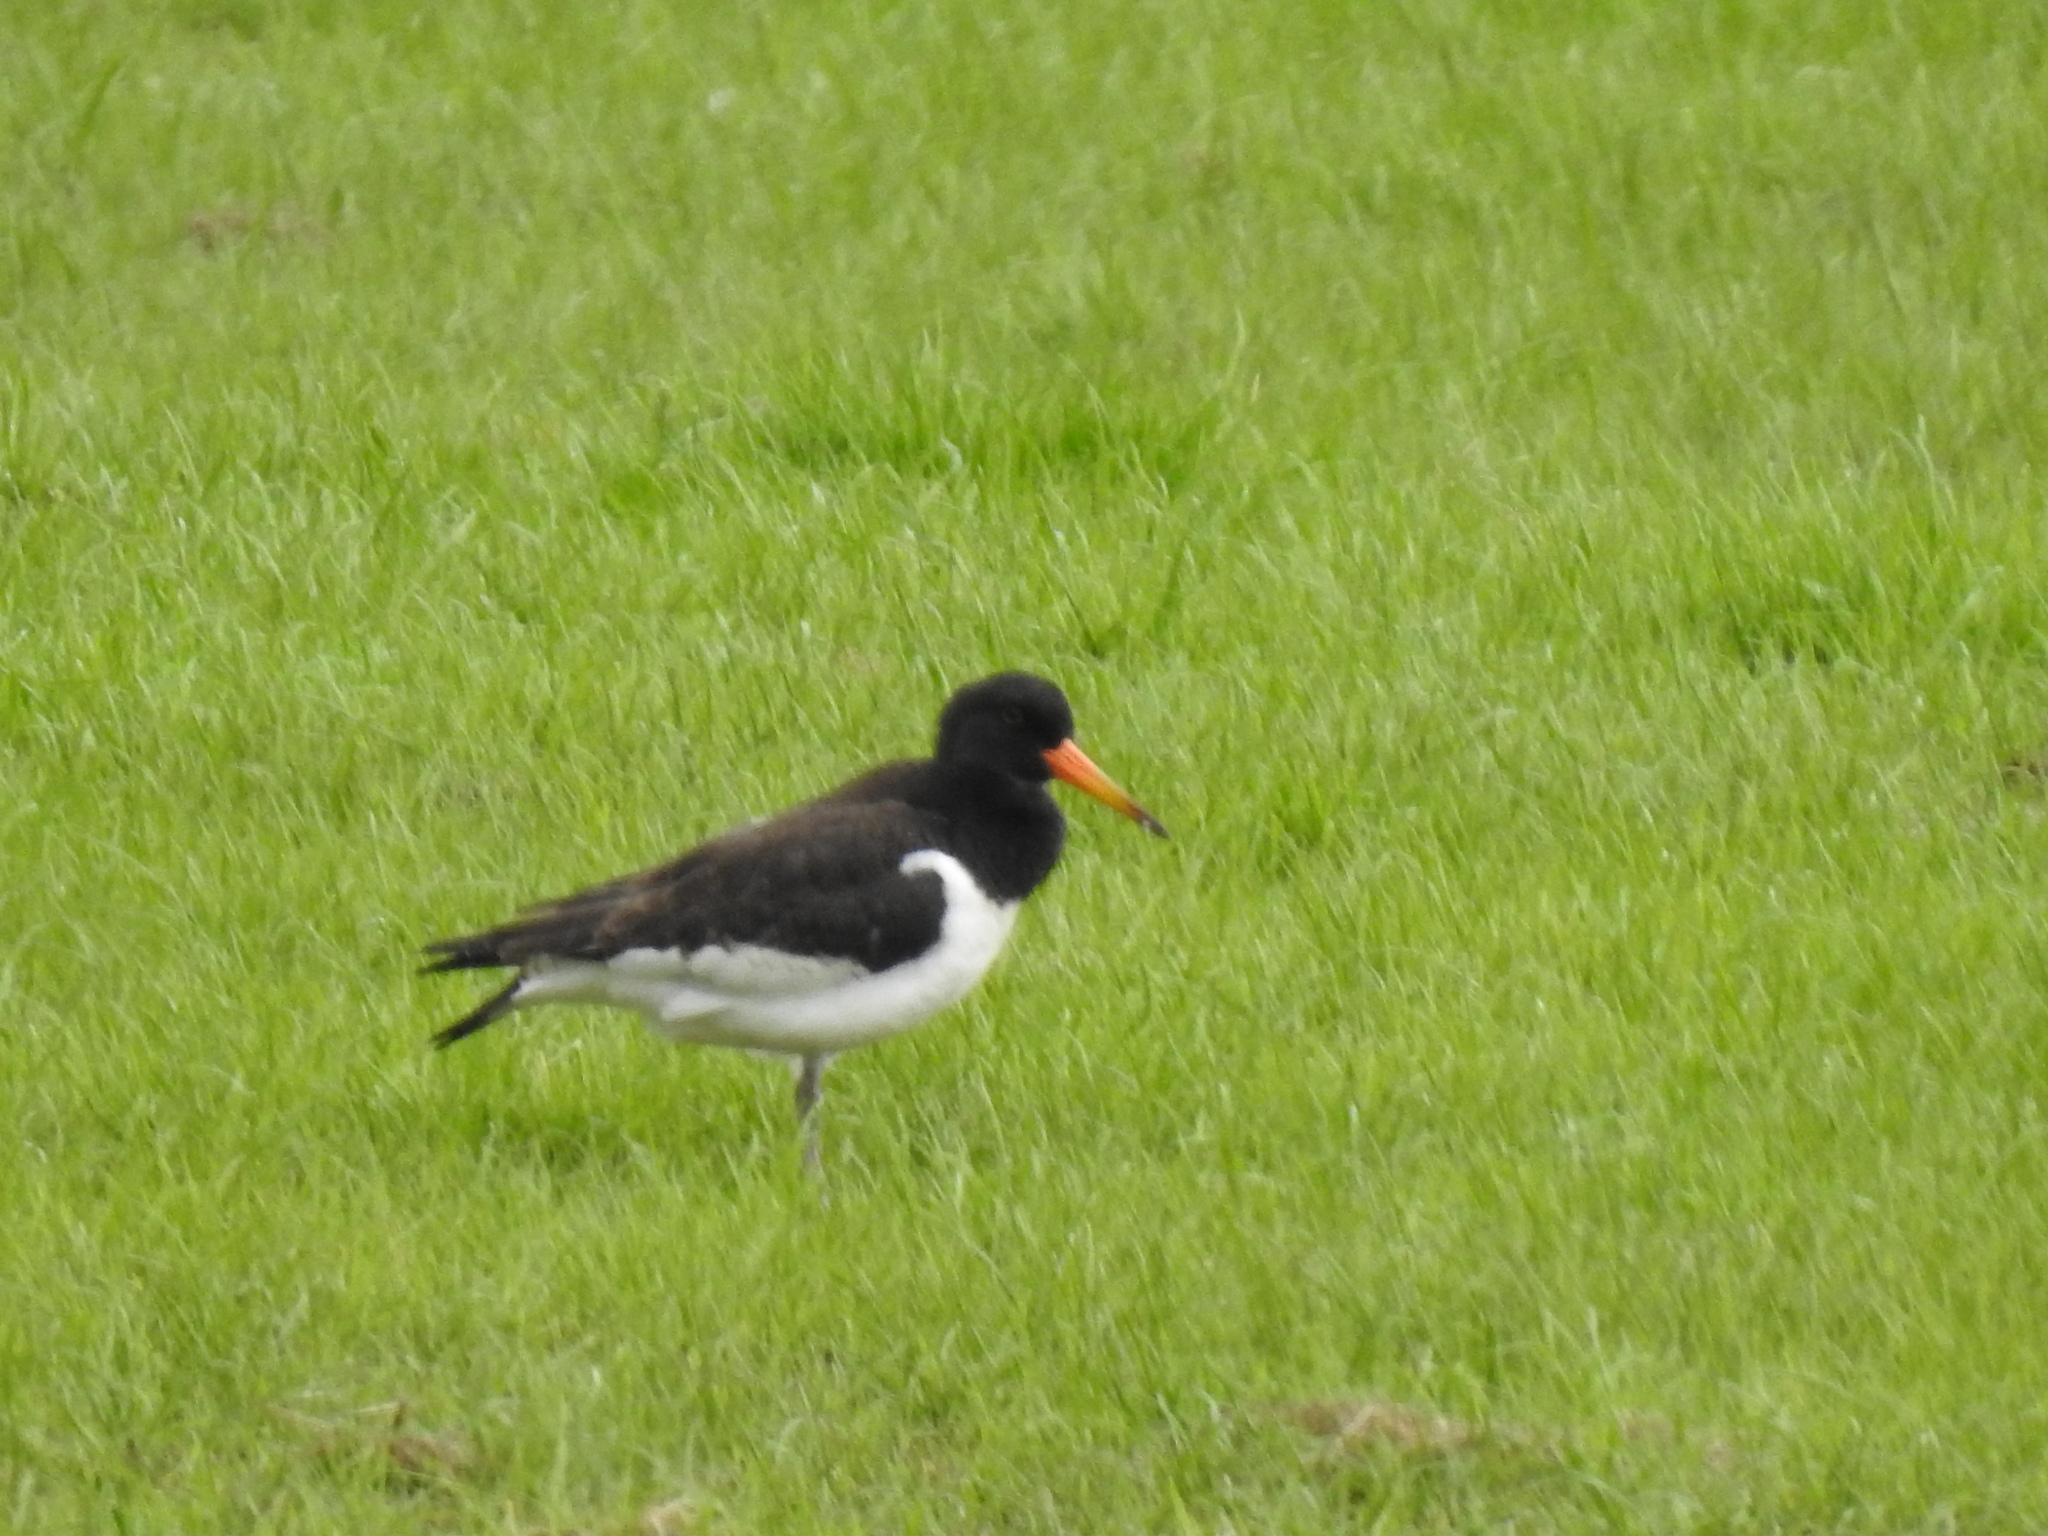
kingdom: Animalia
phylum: Chordata
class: Aves
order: Charadriiformes
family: Haematopodidae
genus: Haematopus
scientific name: Haematopus ostralegus
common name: Eurasian oystercatcher
